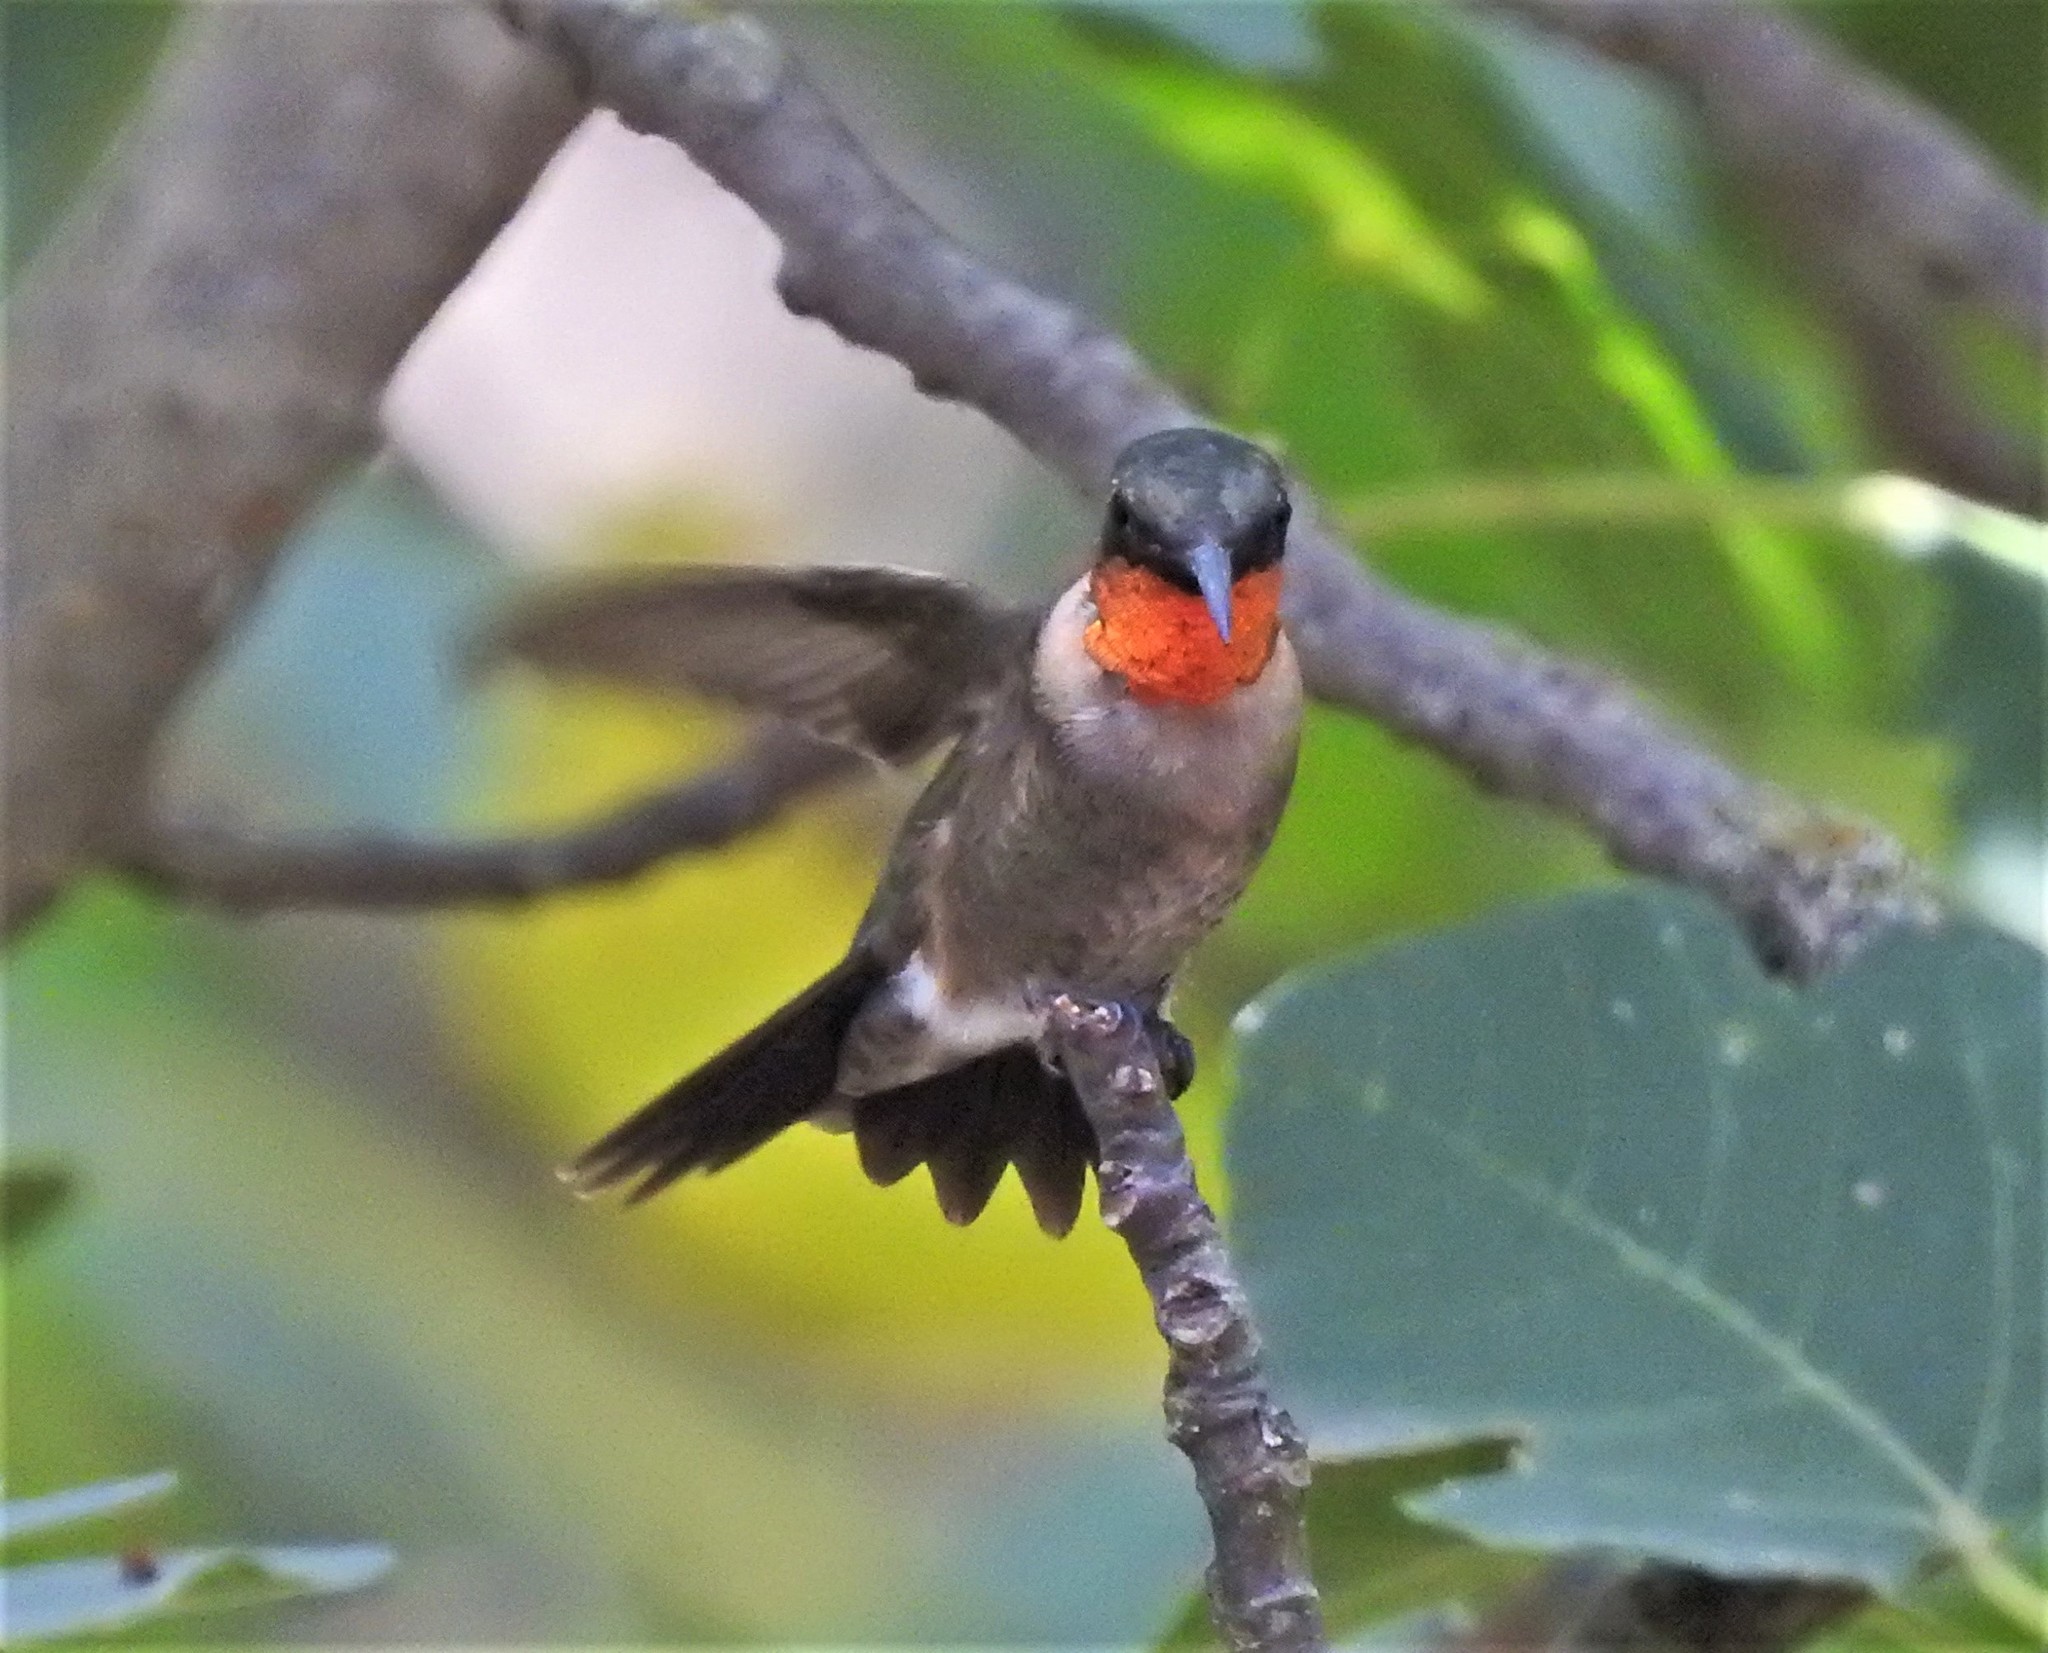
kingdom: Animalia
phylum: Chordata
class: Aves
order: Apodiformes
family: Trochilidae
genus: Archilochus
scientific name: Archilochus colubris
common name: Ruby-throated hummingbird
